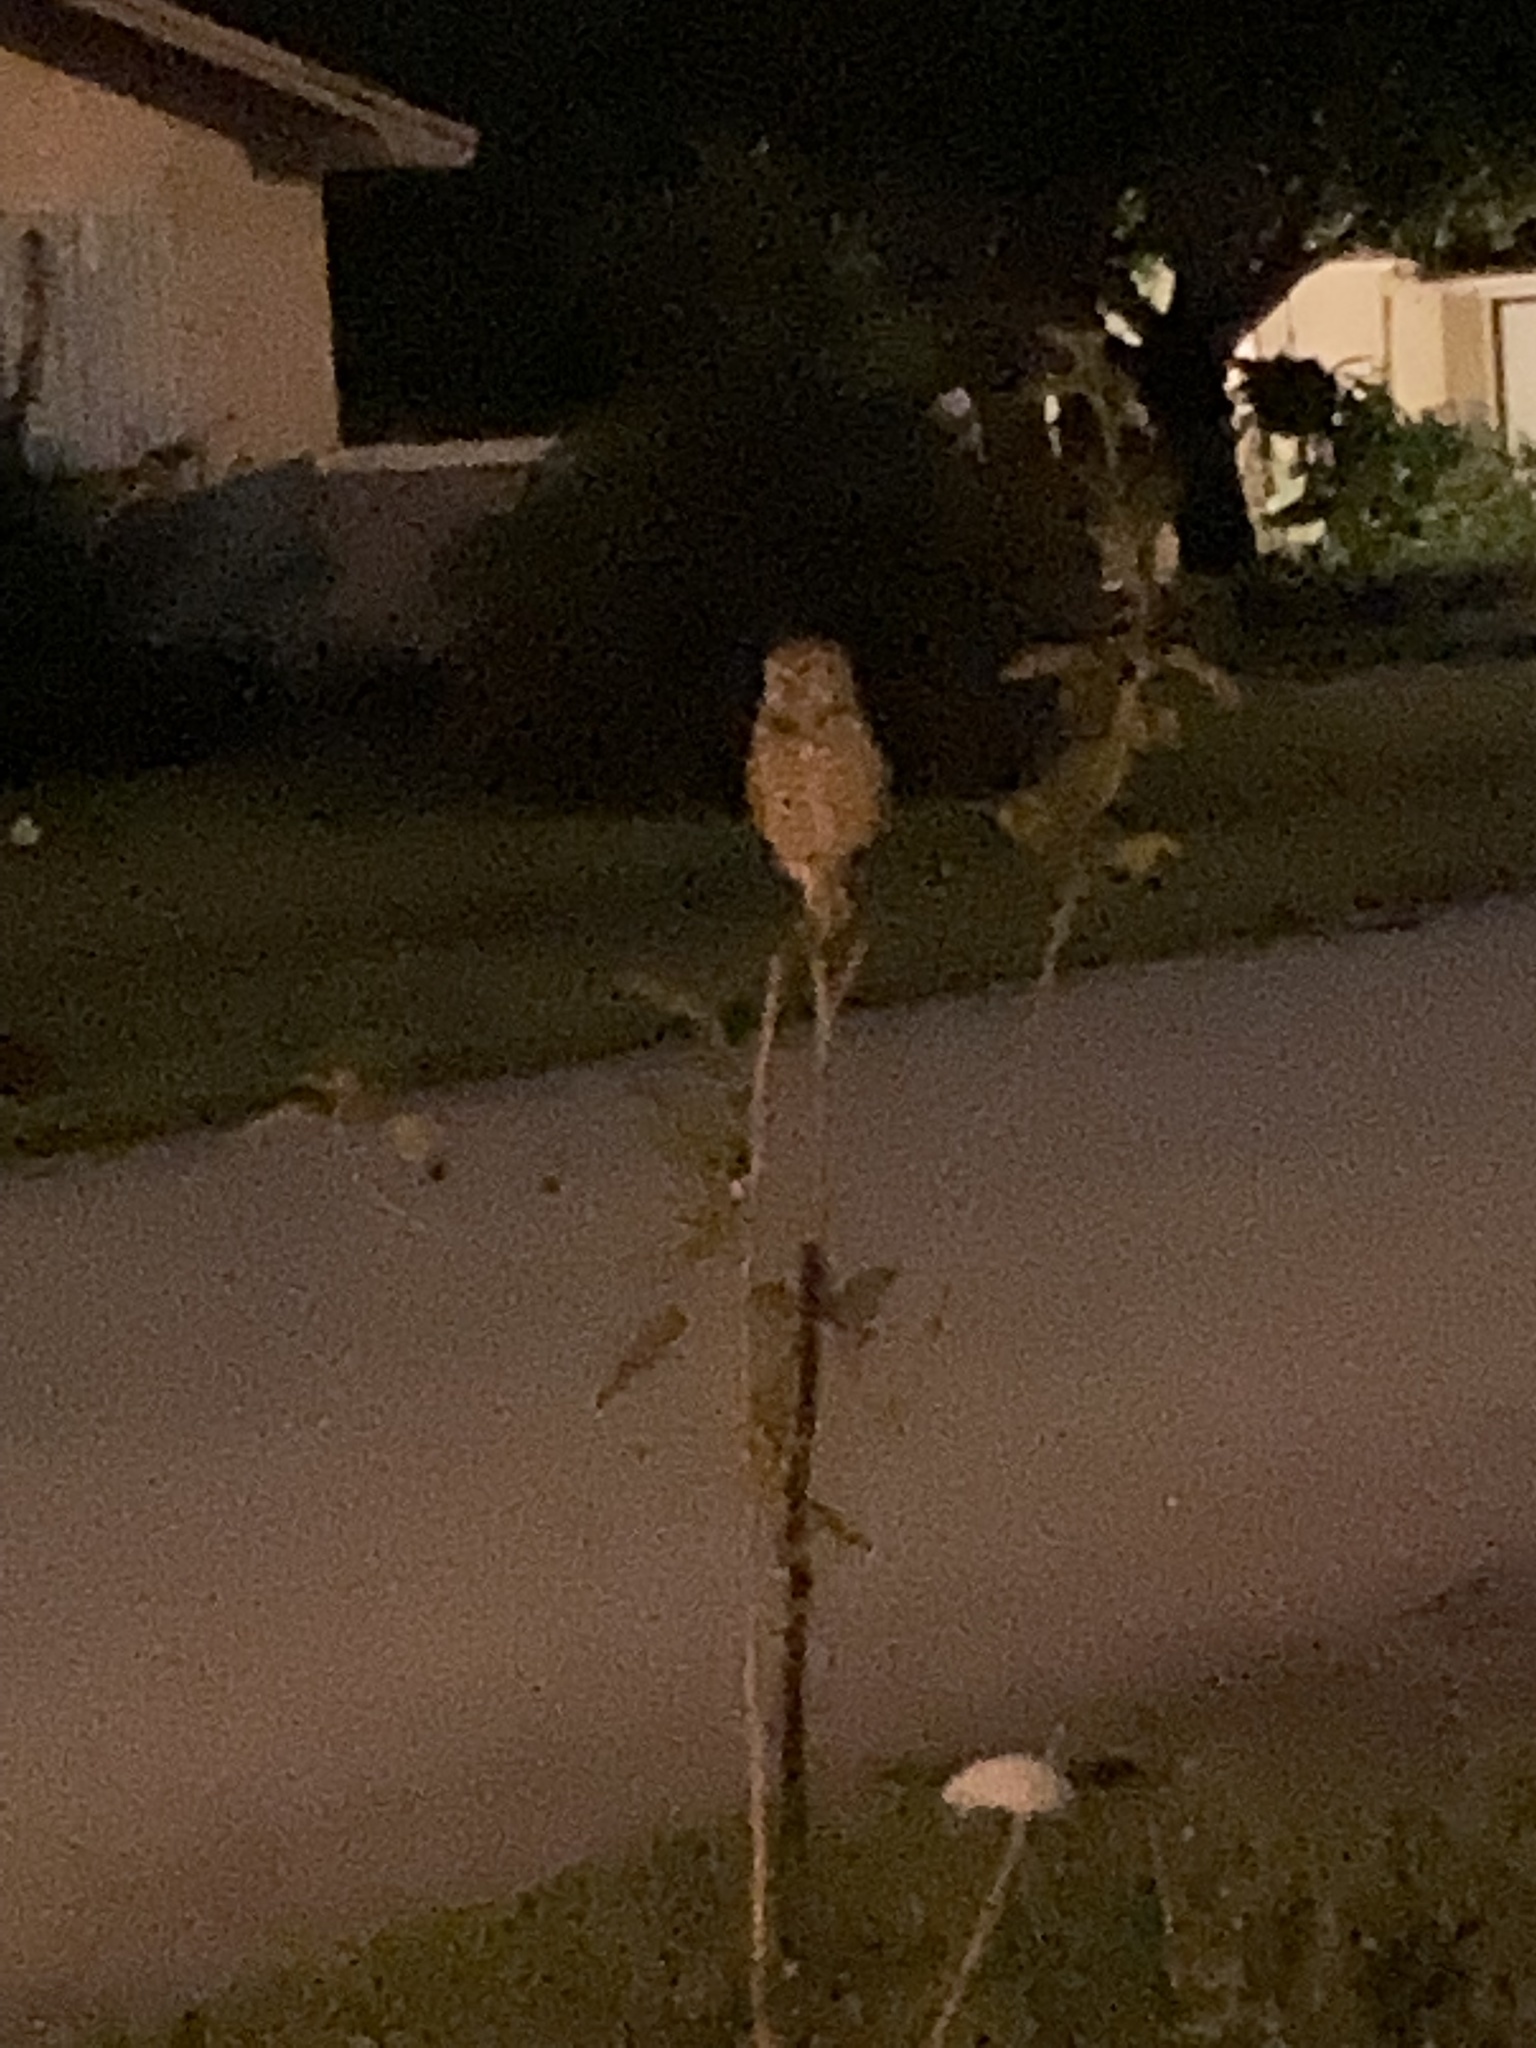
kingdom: Animalia
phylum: Chordata
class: Aves
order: Strigiformes
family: Strigidae
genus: Athene
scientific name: Athene cunicularia
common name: Burrowing owl
